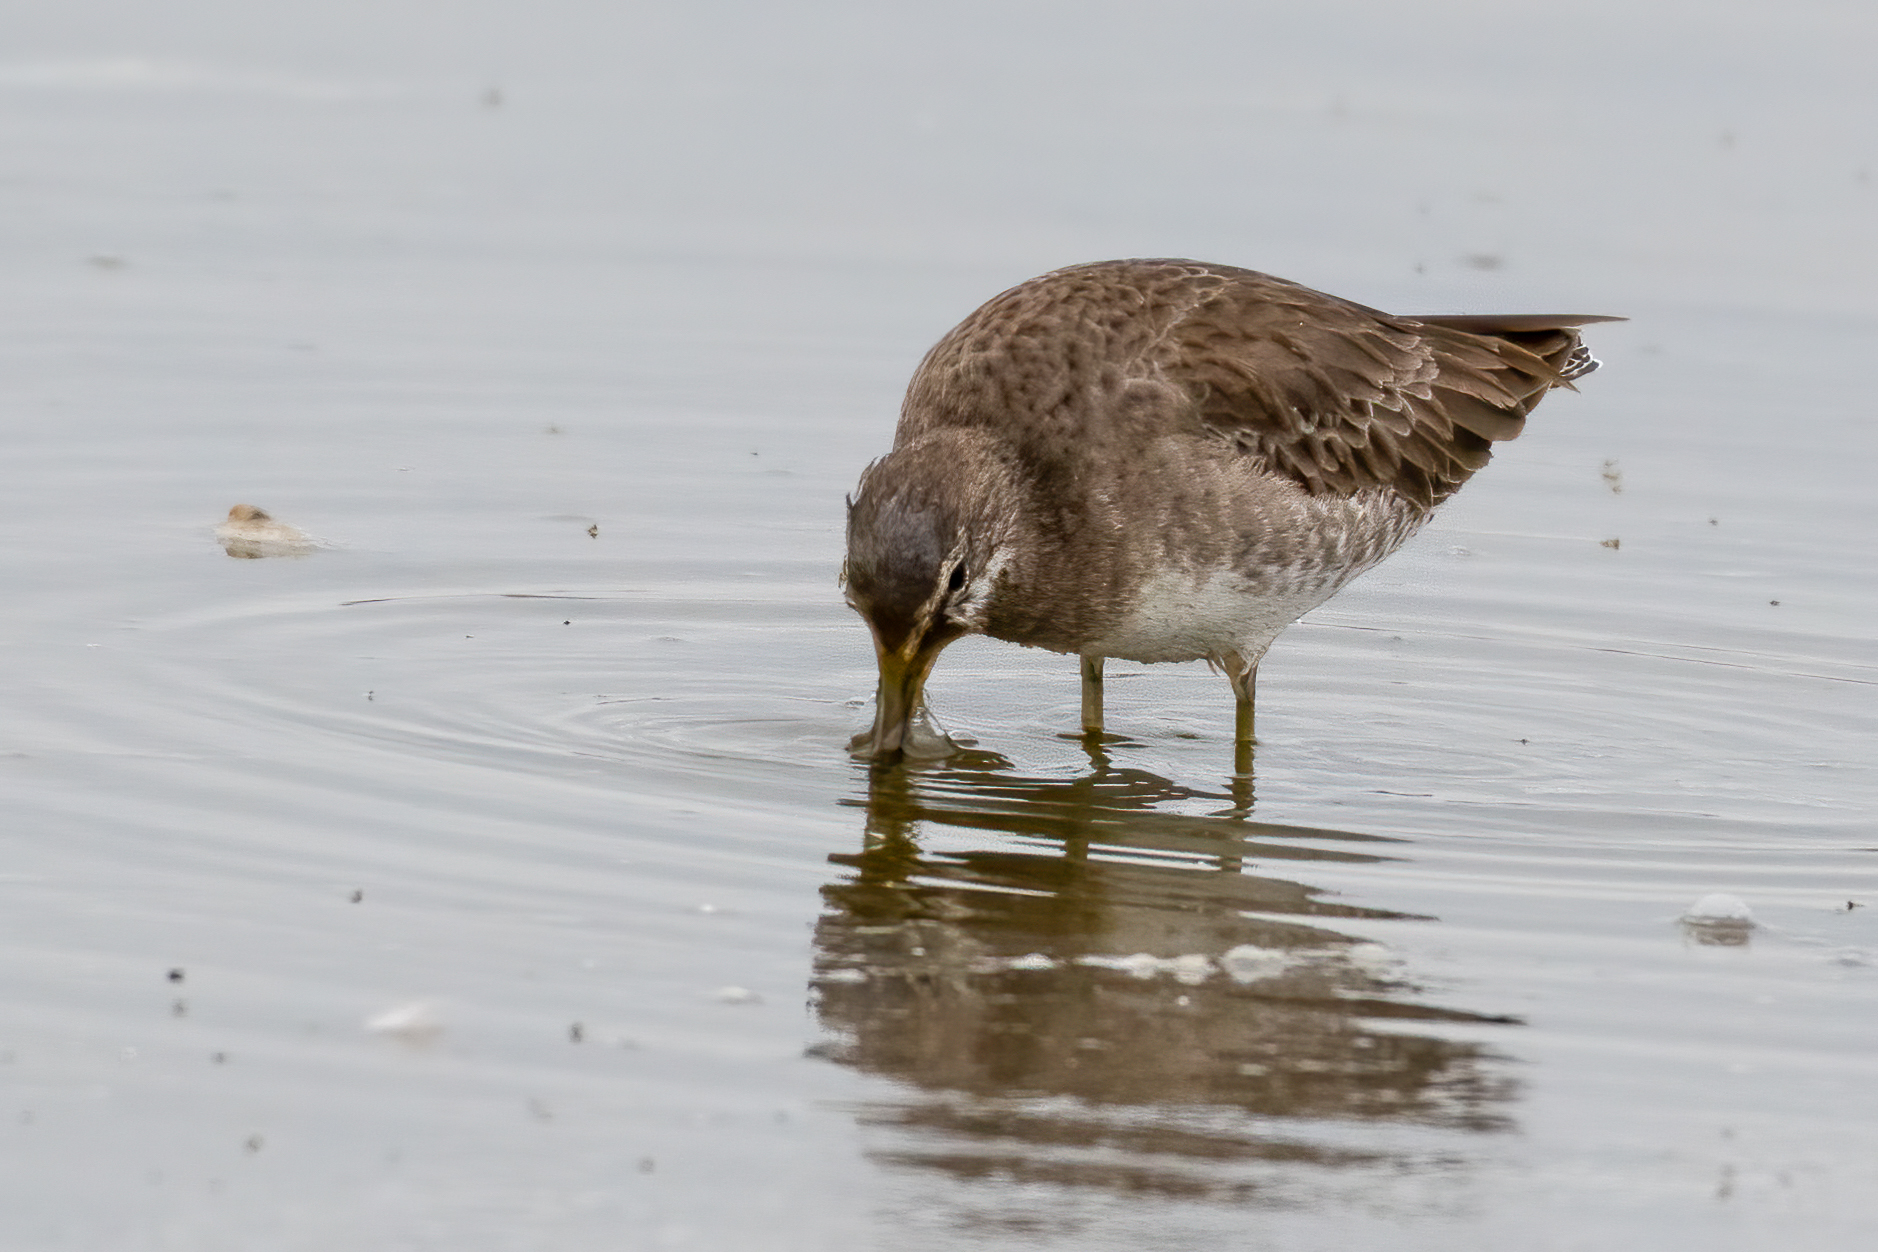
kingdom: Animalia
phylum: Chordata
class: Aves
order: Charadriiformes
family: Scolopacidae
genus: Limnodromus
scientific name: Limnodromus scolopaceus
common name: Long-billed dowitcher
